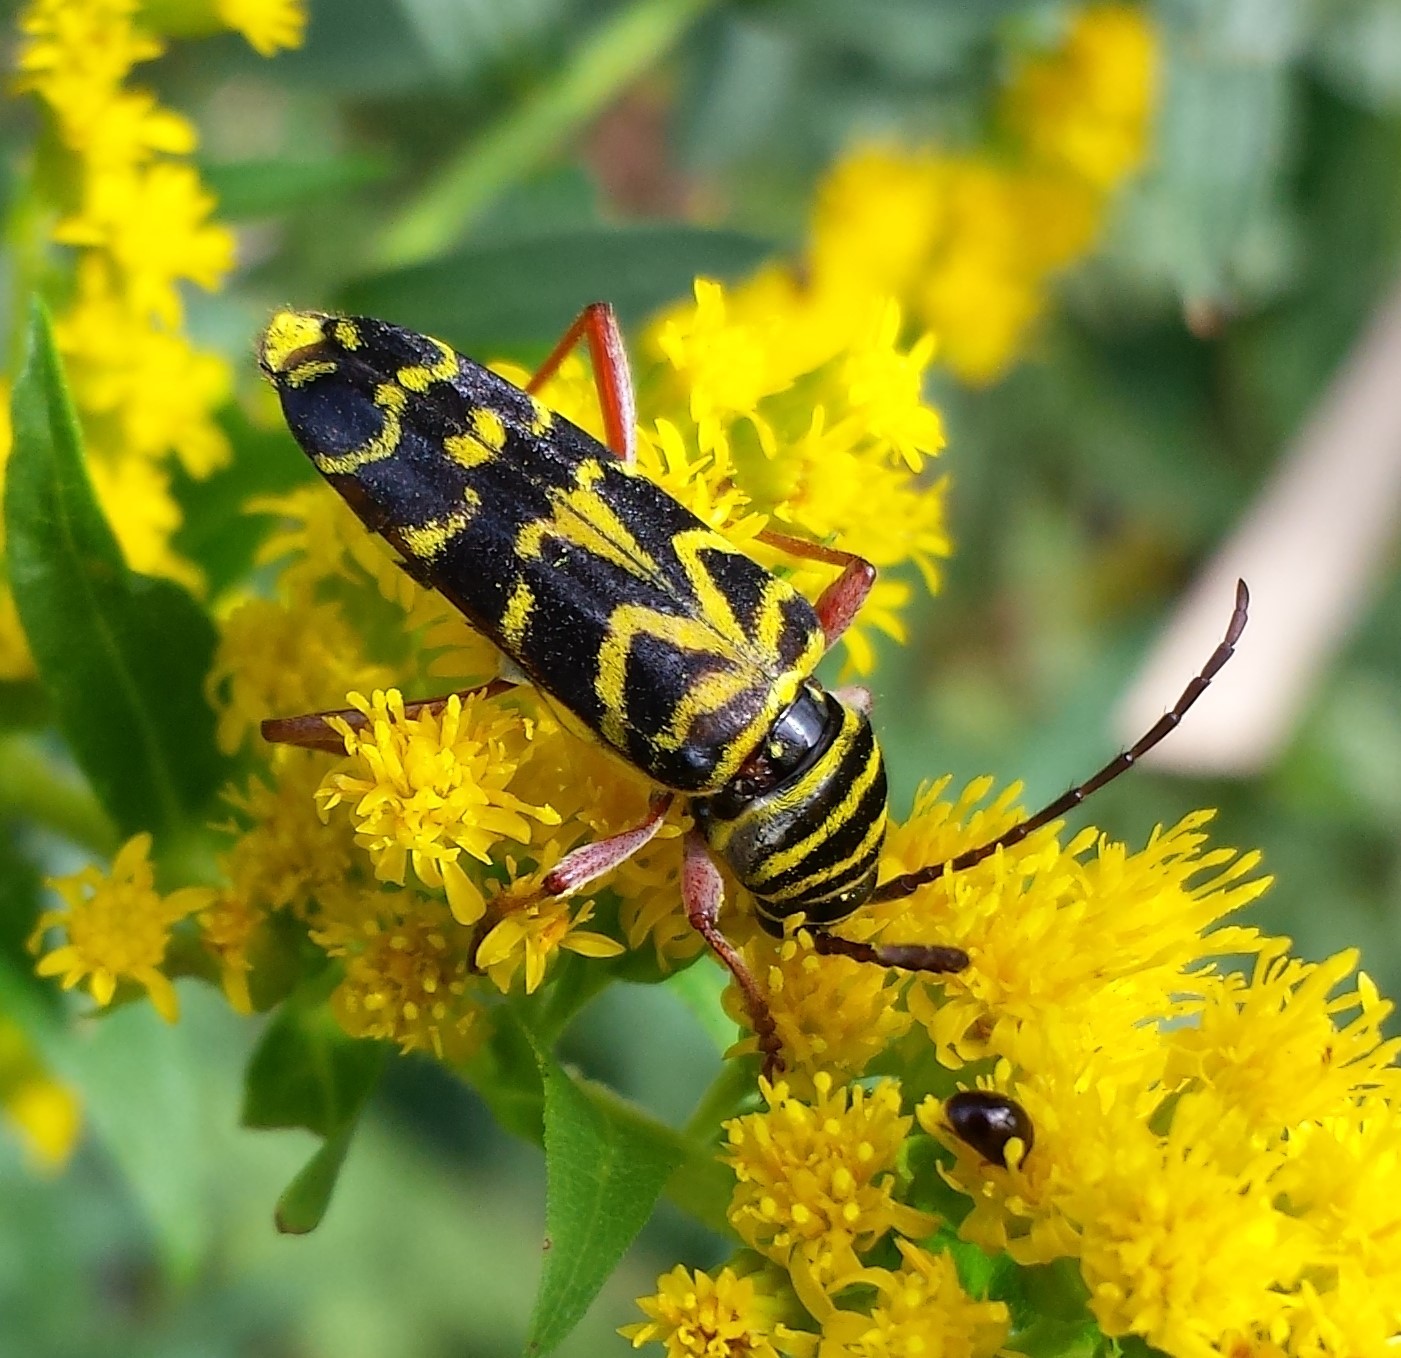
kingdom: Animalia
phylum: Arthropoda
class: Insecta
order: Coleoptera
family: Cerambycidae
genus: Megacyllene
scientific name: Megacyllene robiniae
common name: Locust borer
